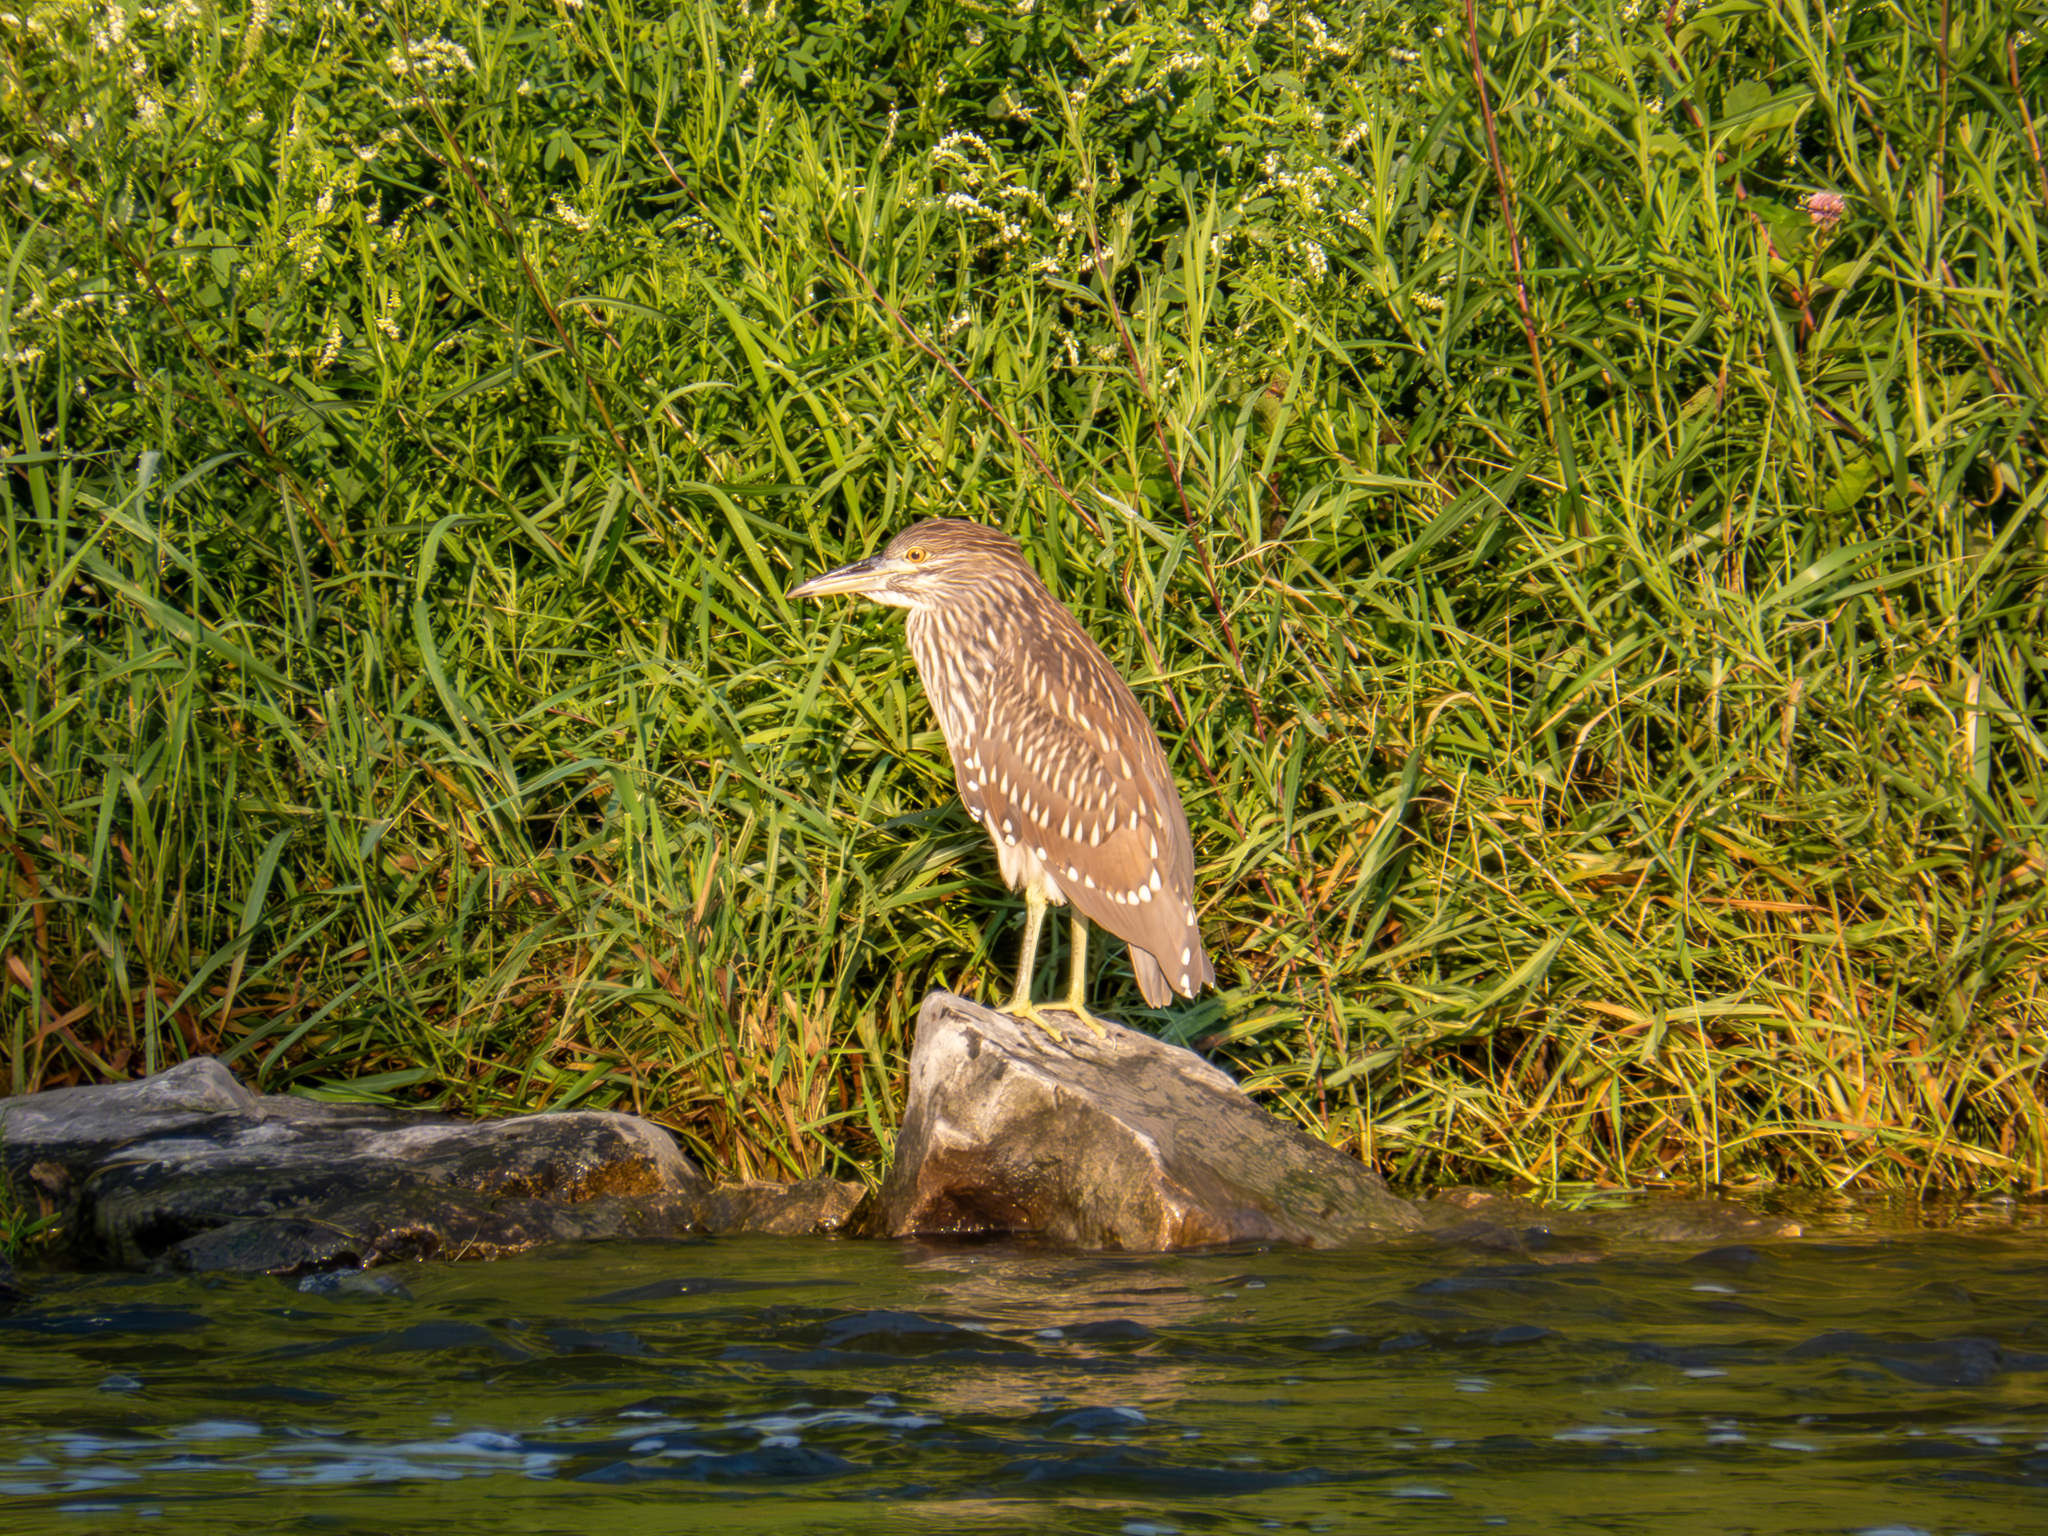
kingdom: Animalia
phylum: Chordata
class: Aves
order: Pelecaniformes
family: Ardeidae
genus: Nycticorax
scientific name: Nycticorax nycticorax
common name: Black-crowned night heron
